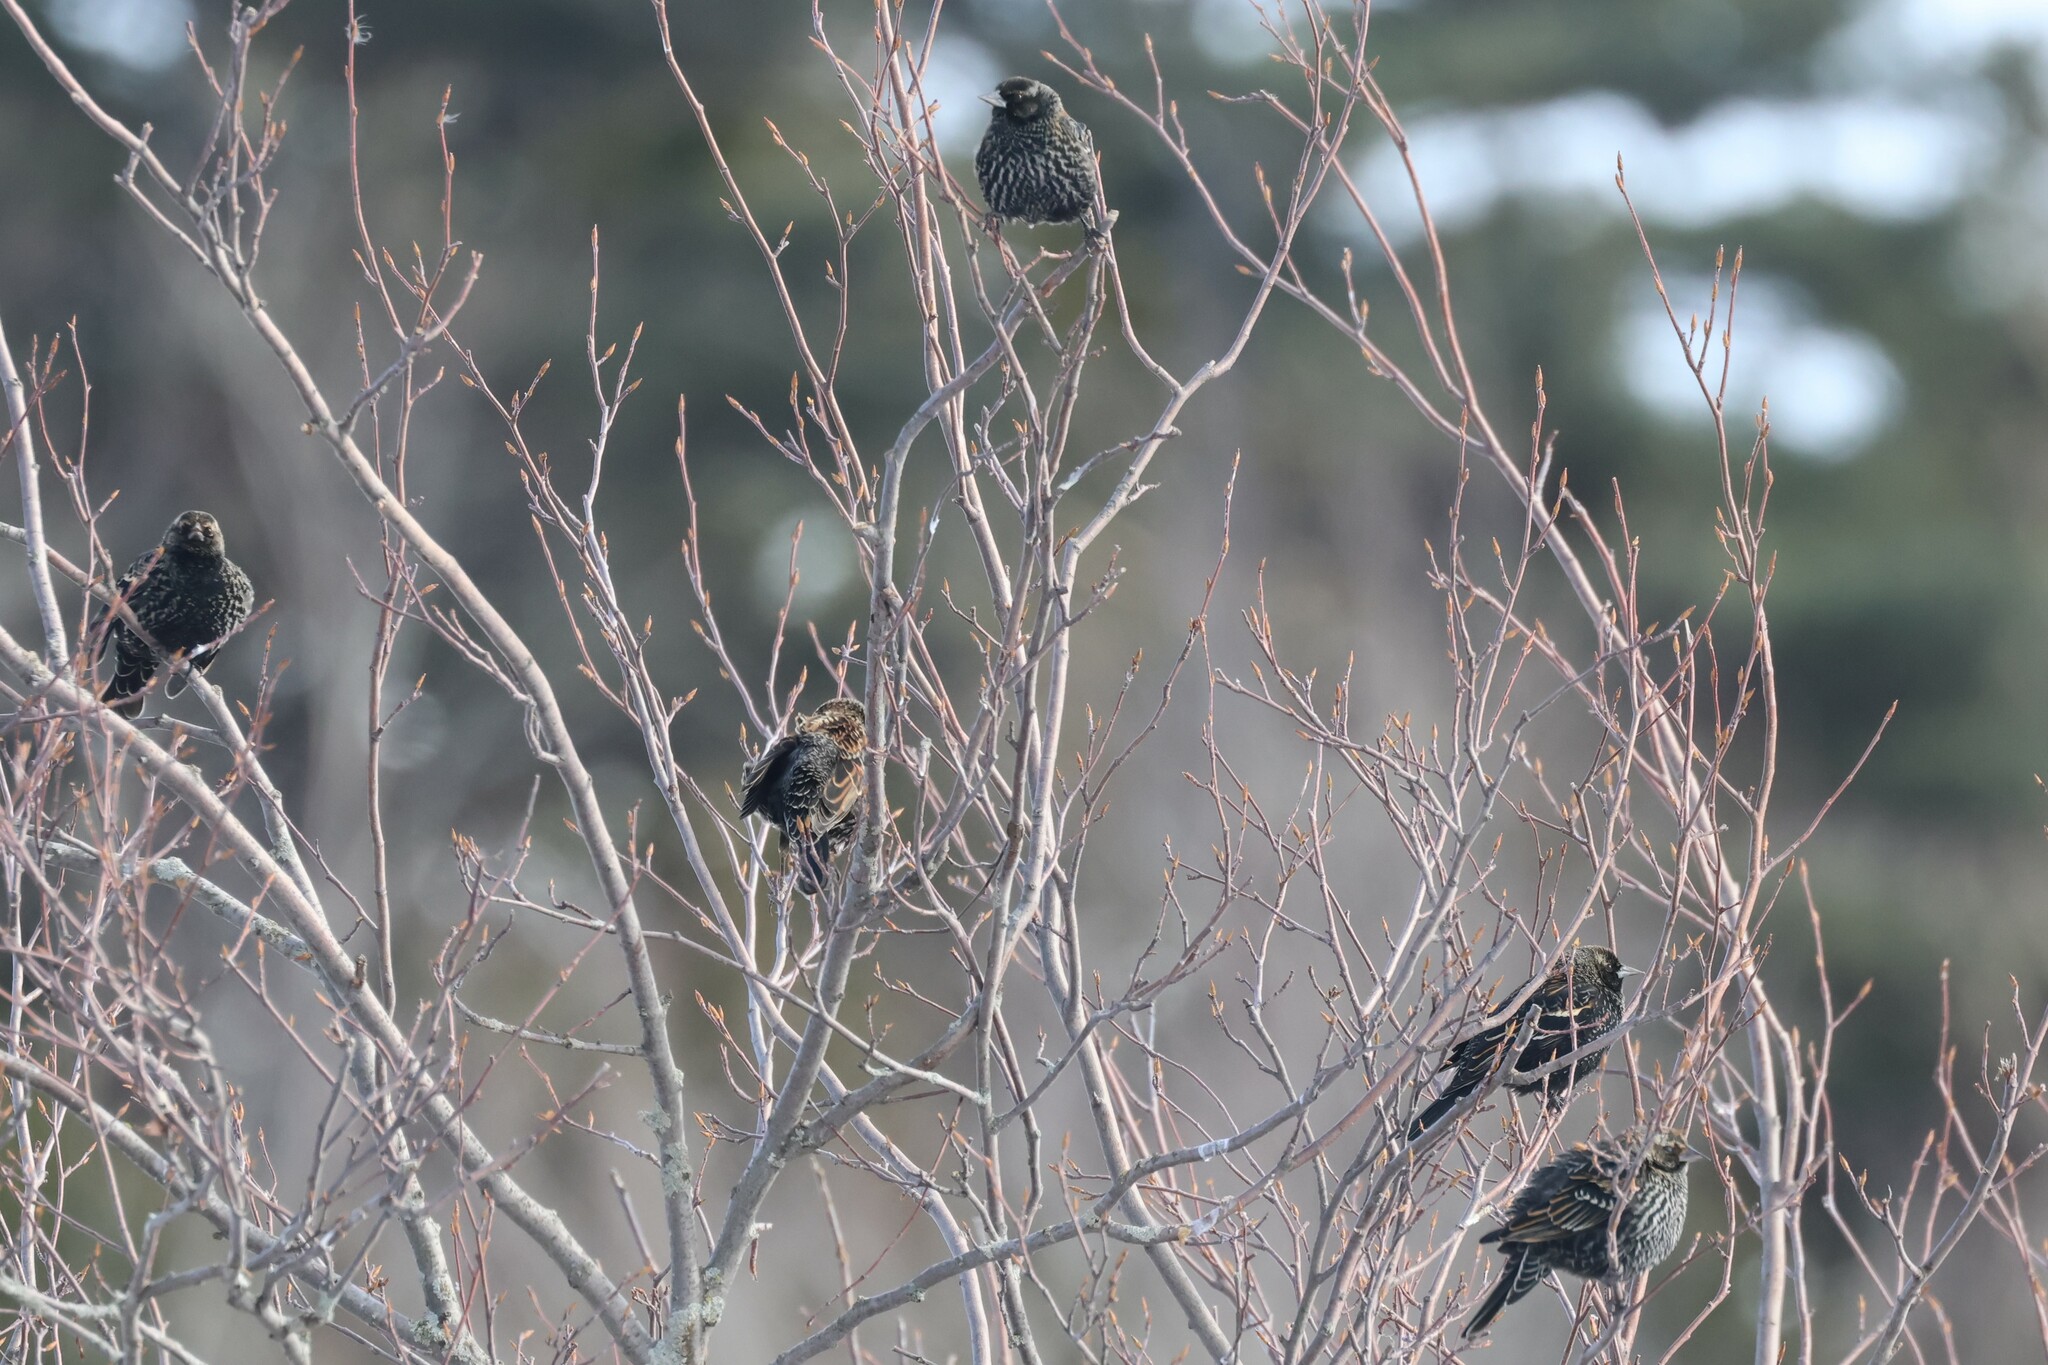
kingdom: Animalia
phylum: Chordata
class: Aves
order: Passeriformes
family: Icteridae
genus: Agelaius
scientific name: Agelaius phoeniceus
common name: Red-winged blackbird
